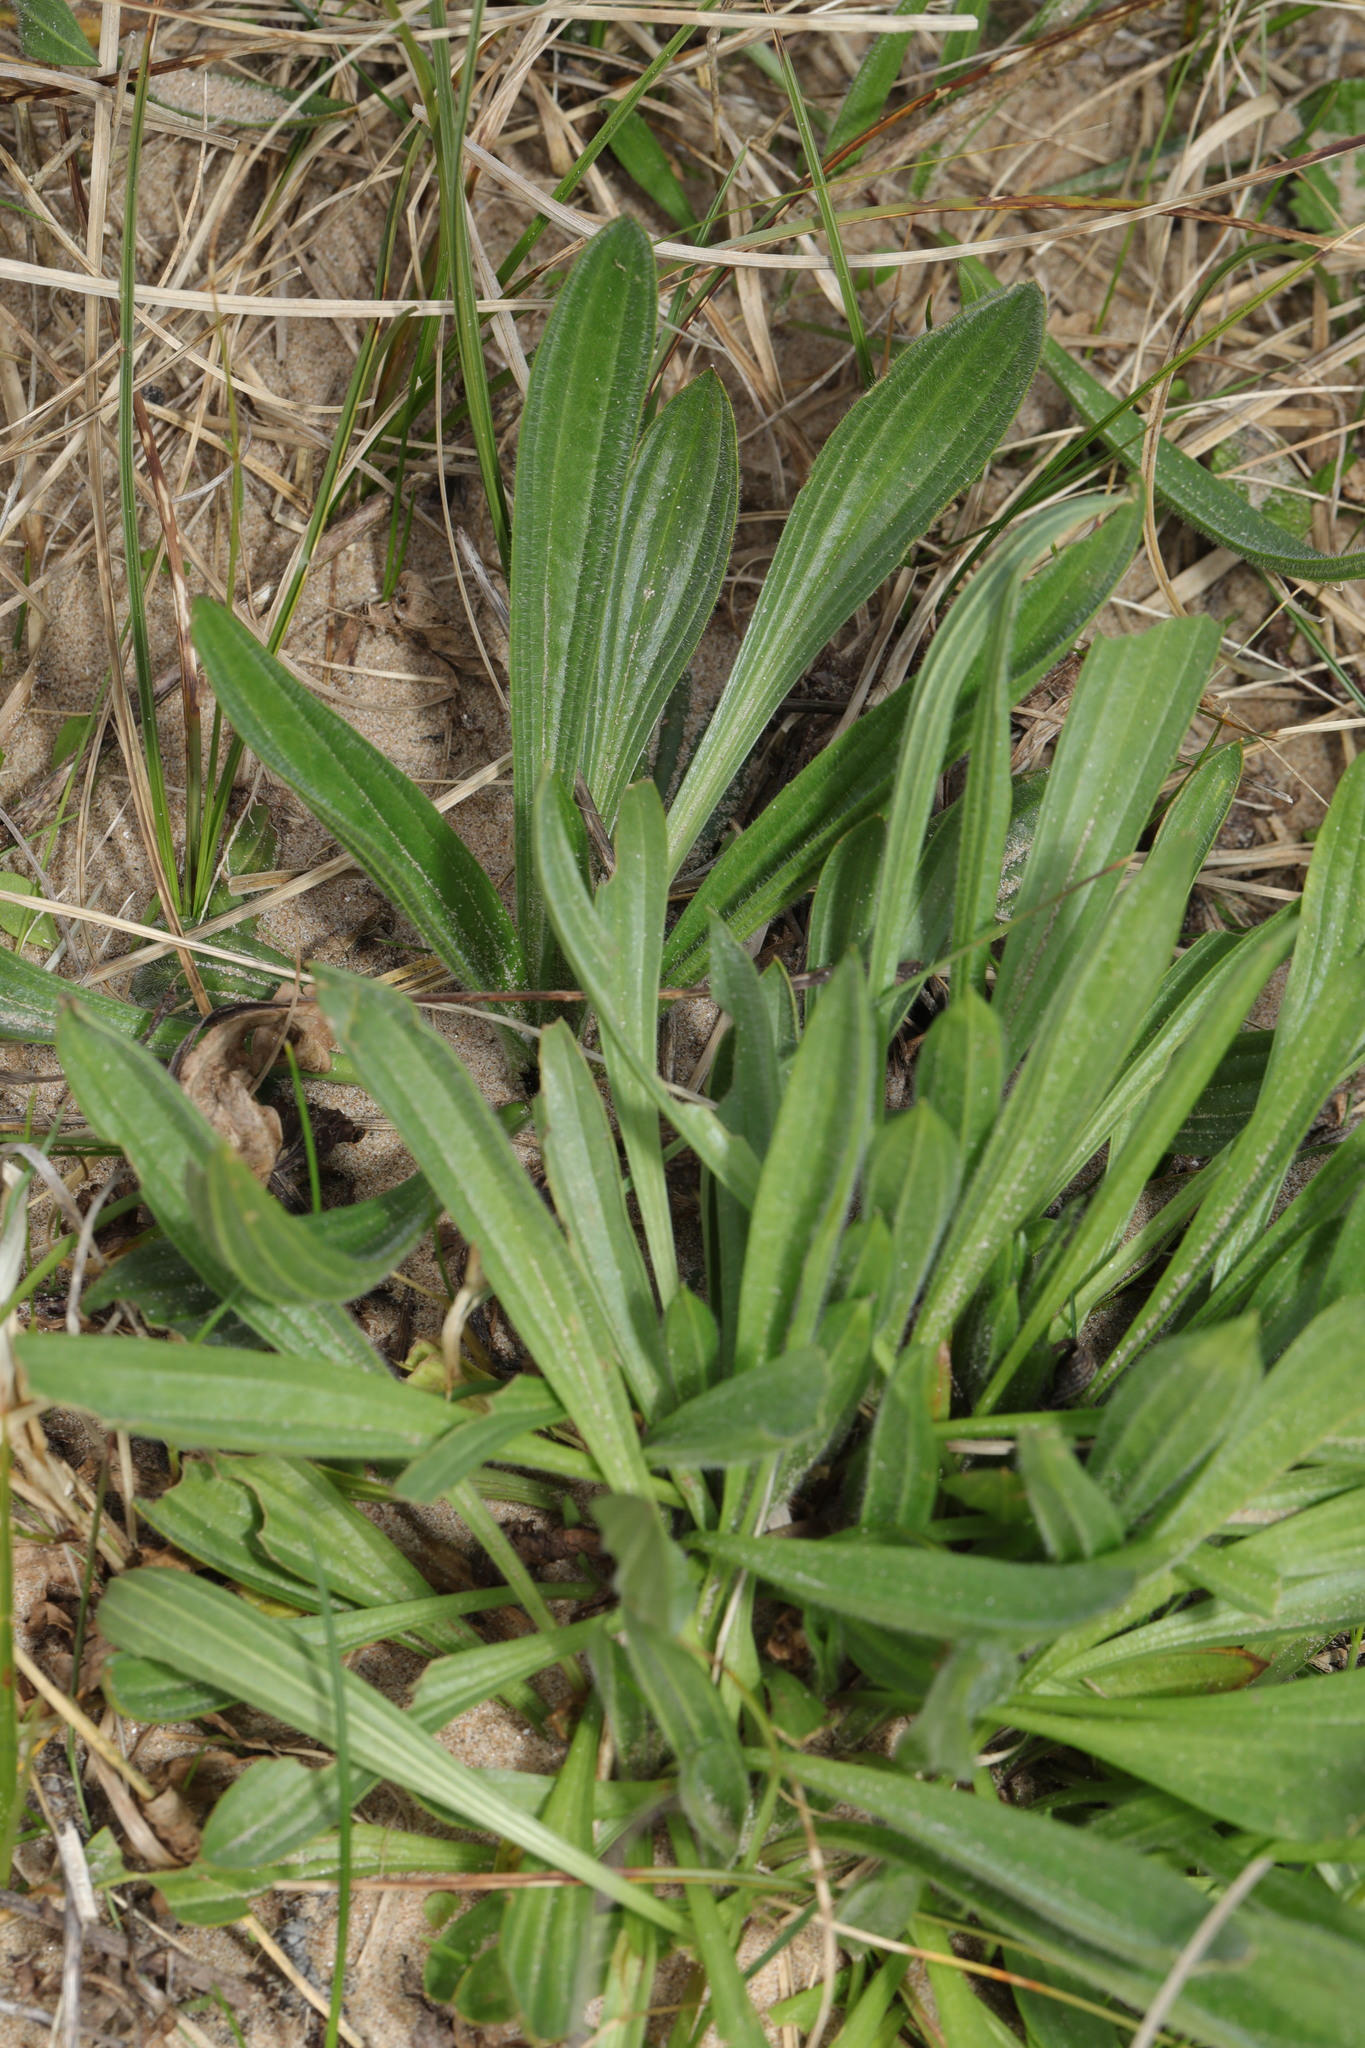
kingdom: Plantae
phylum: Tracheophyta
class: Magnoliopsida
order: Lamiales
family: Plantaginaceae
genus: Plantago
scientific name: Plantago lanceolata
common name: Ribwort plantain
